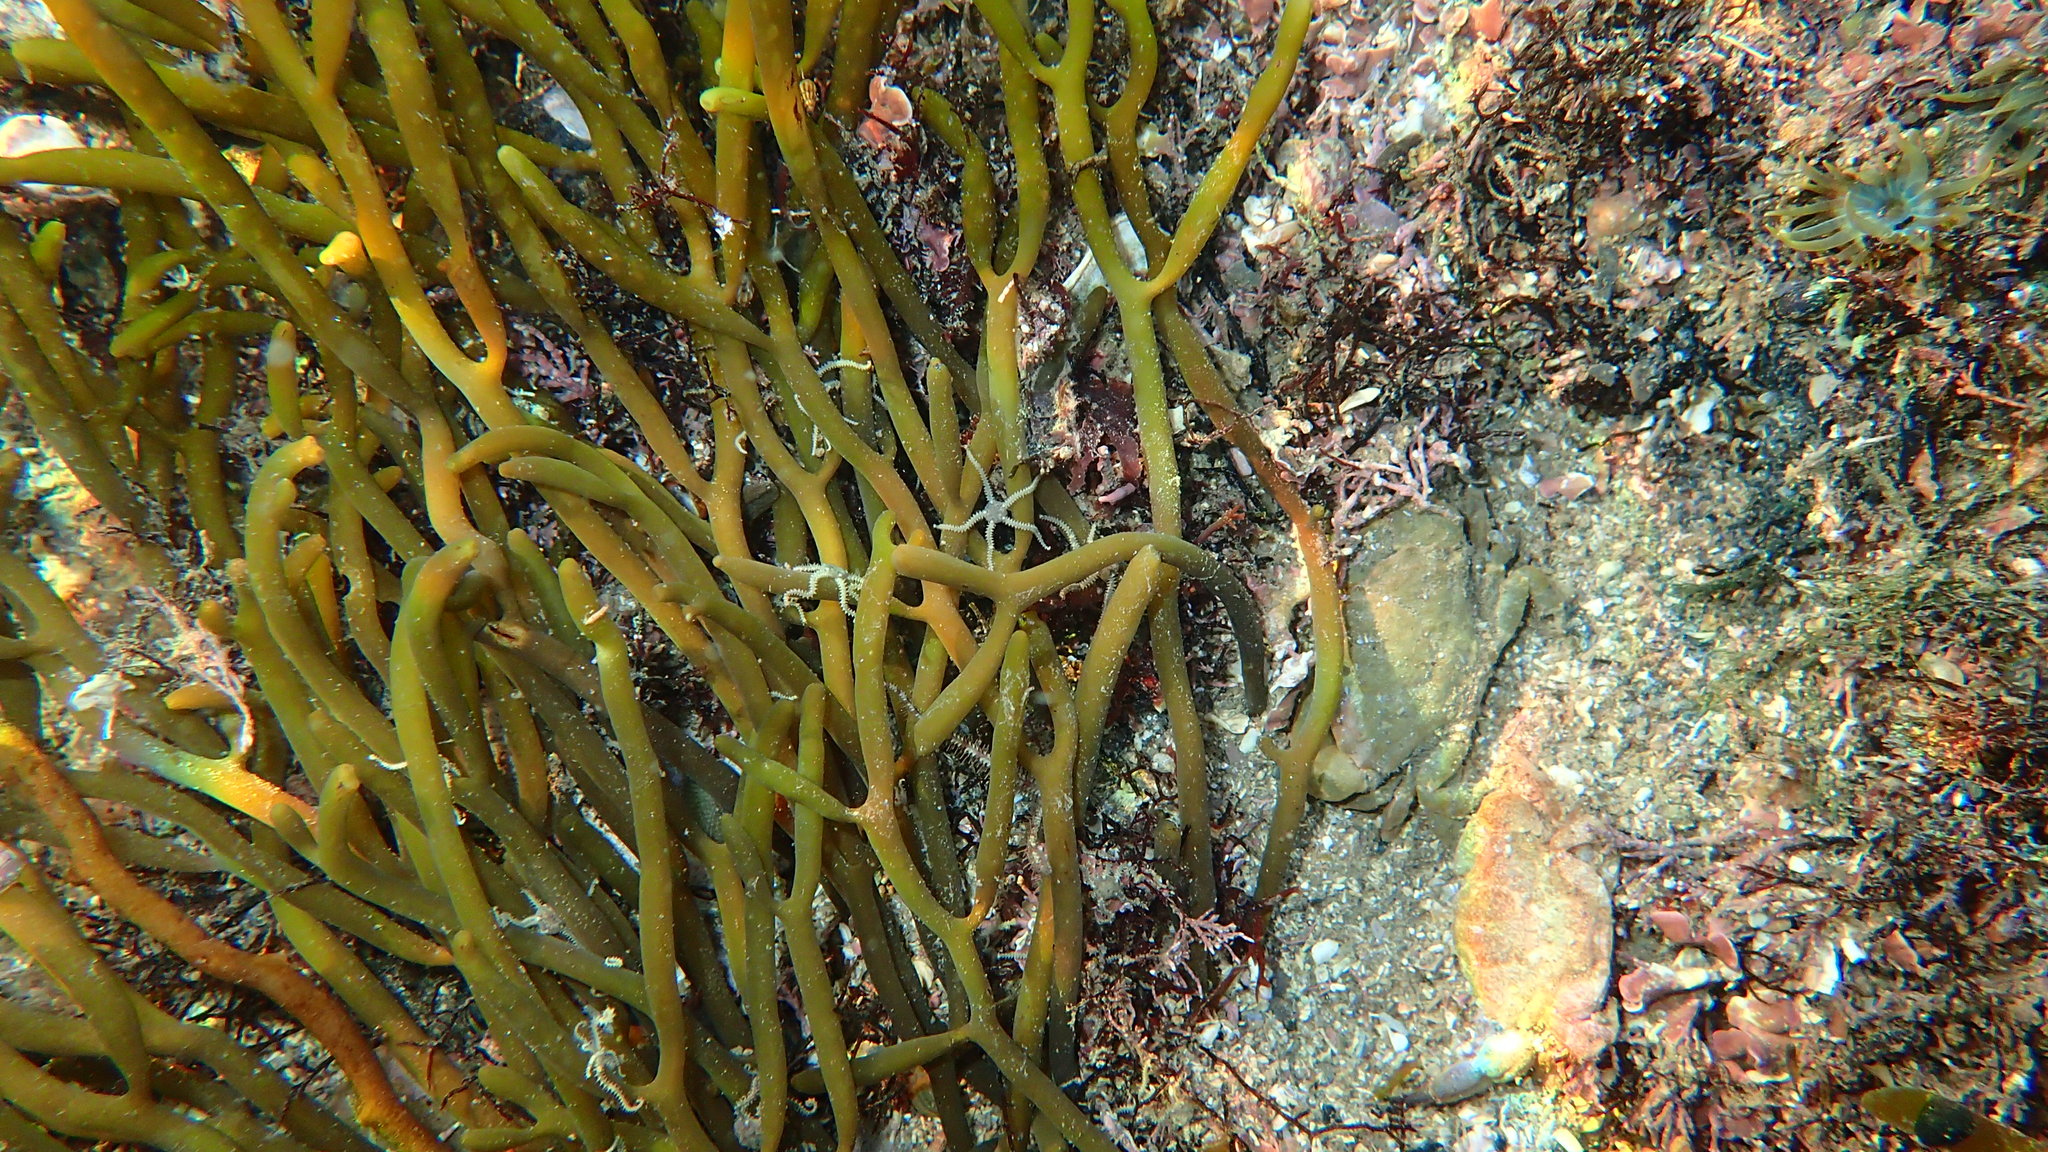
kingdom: Animalia
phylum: Echinodermata
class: Ophiuroidea
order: Amphilepidida
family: Amphiuridae
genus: Amphipholis
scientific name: Amphipholis squamata
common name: Brooding snake star
